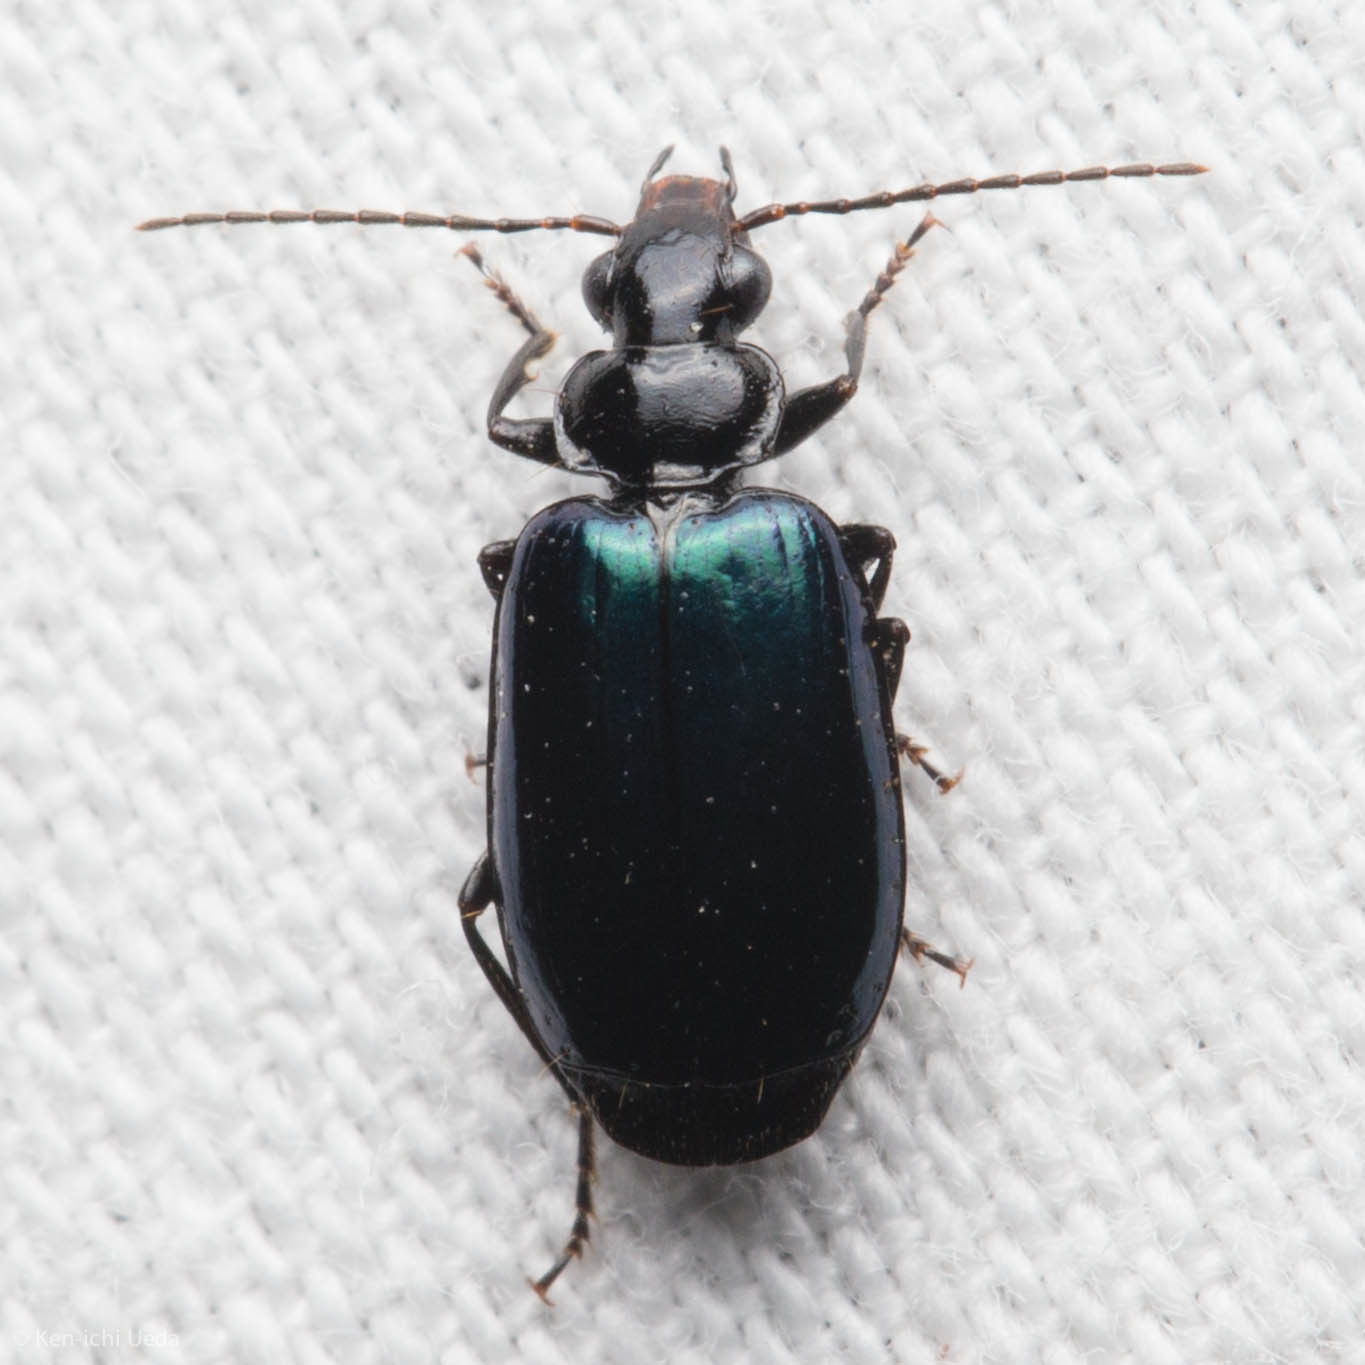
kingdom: Animalia
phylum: Arthropoda
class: Insecta
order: Coleoptera
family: Carabidae
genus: Lebia
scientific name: Lebia cyanipennis
